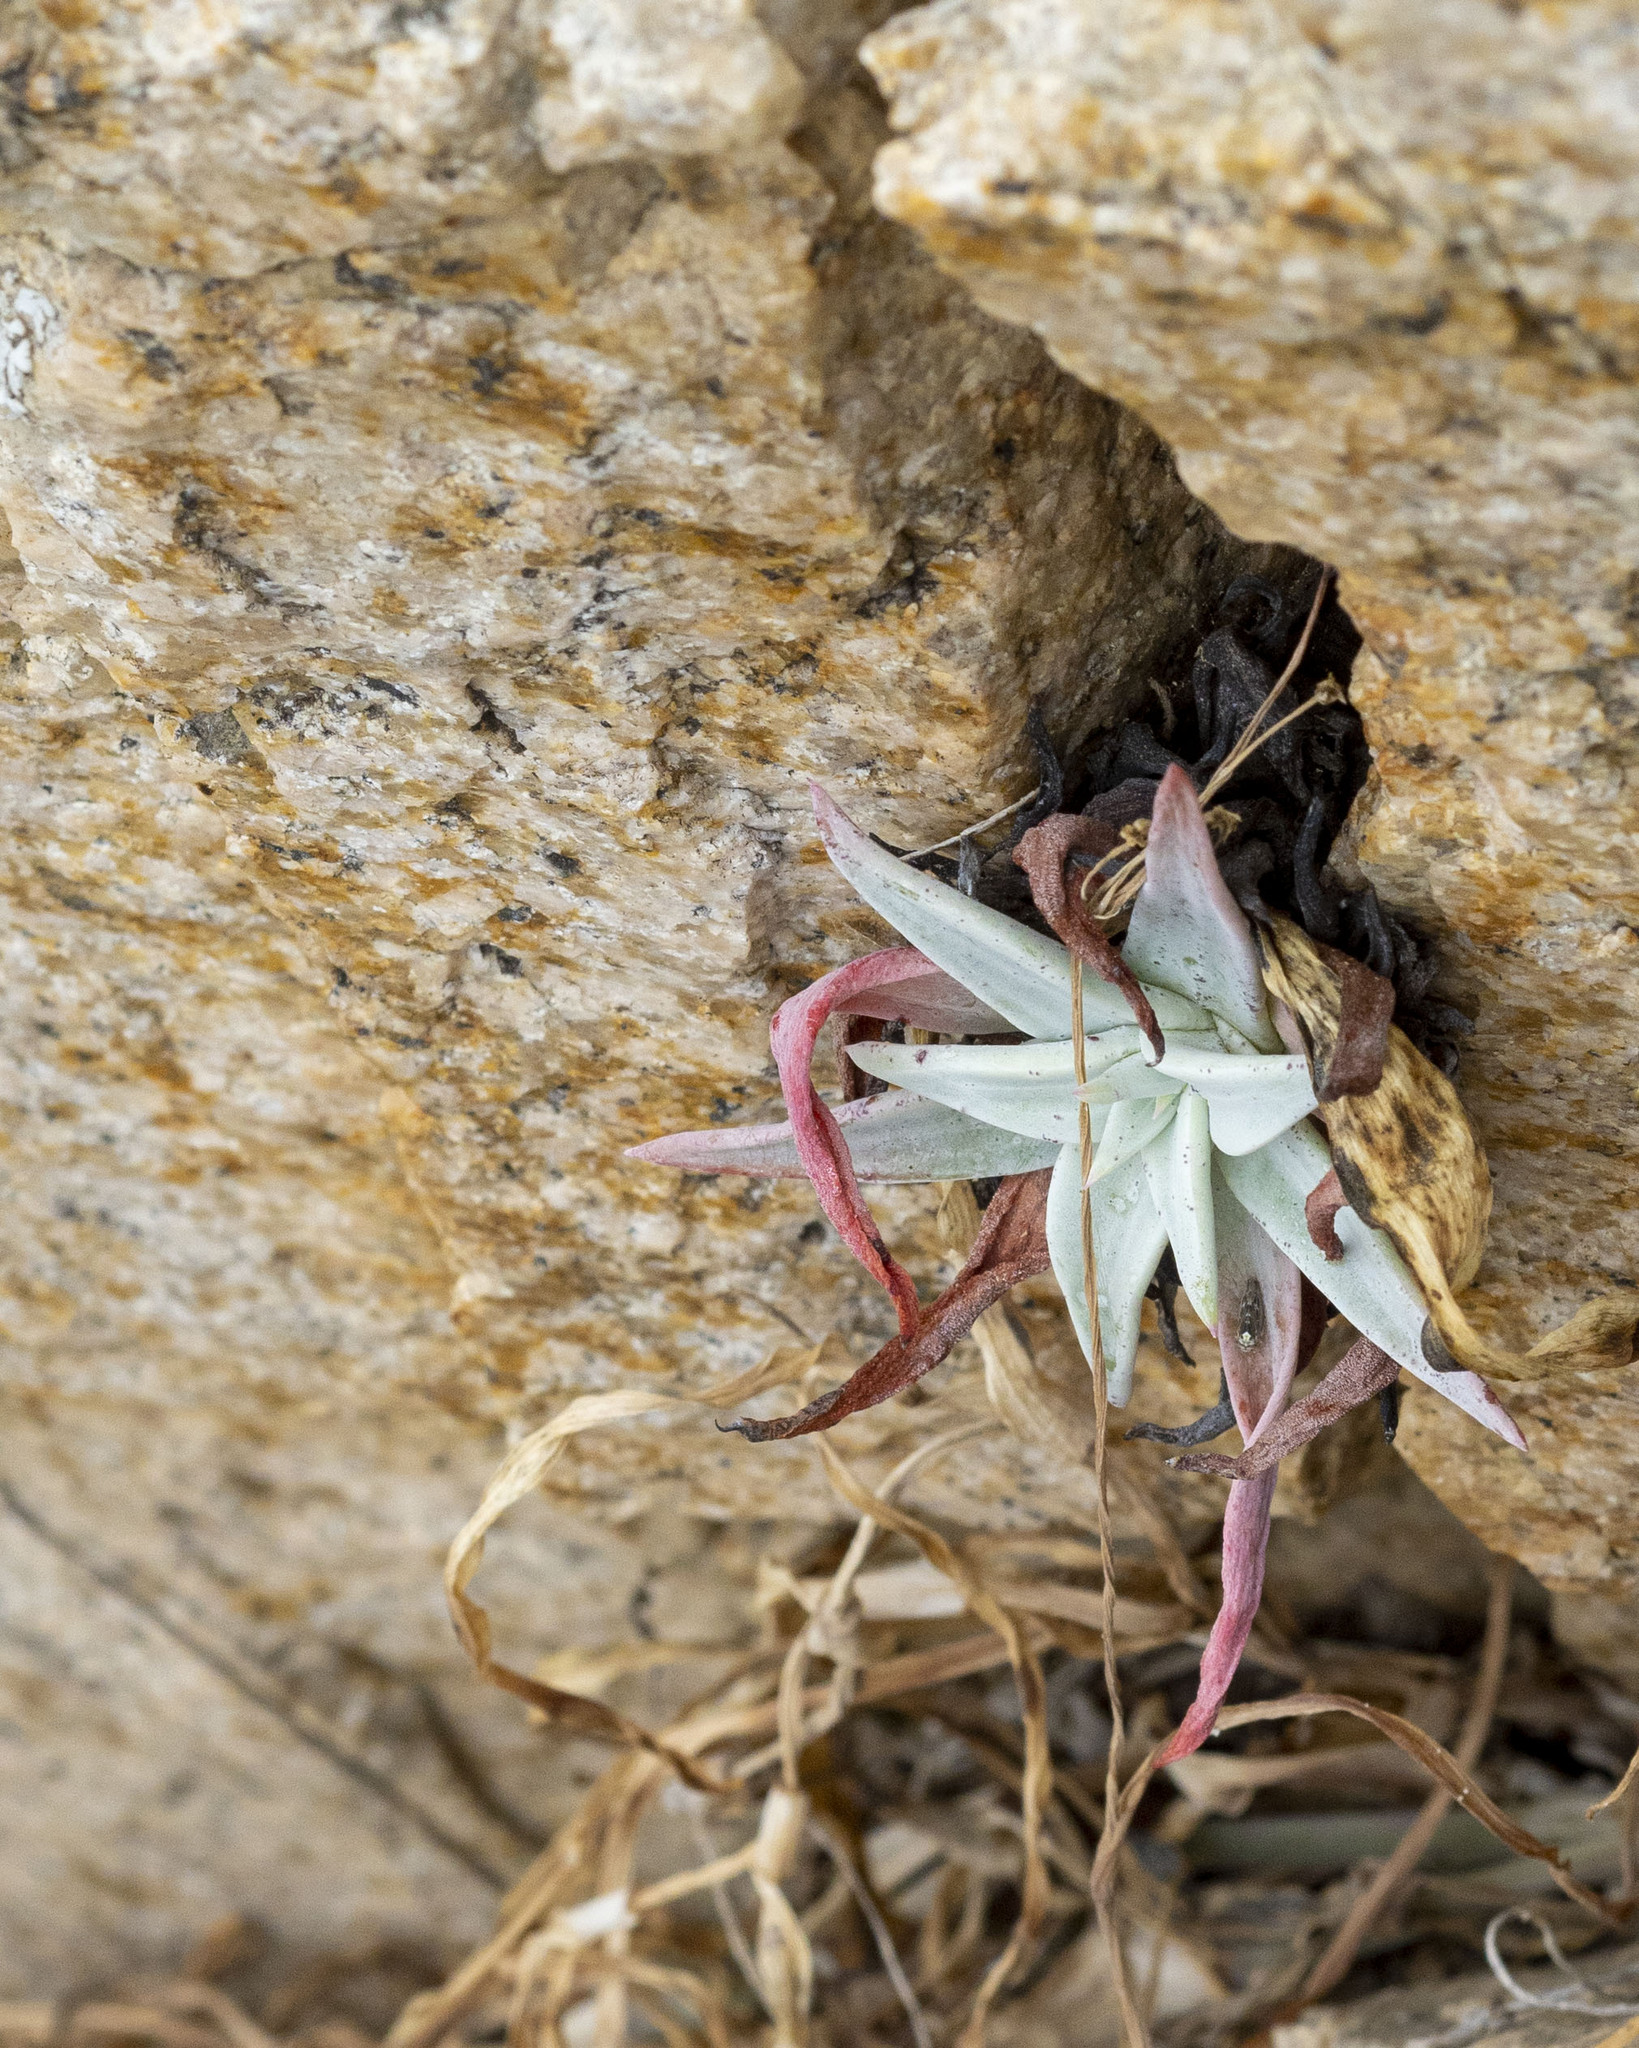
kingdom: Plantae
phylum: Tracheophyta
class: Magnoliopsida
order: Saxifragales
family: Crassulaceae
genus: Dudleya
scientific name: Dudleya nubigena
